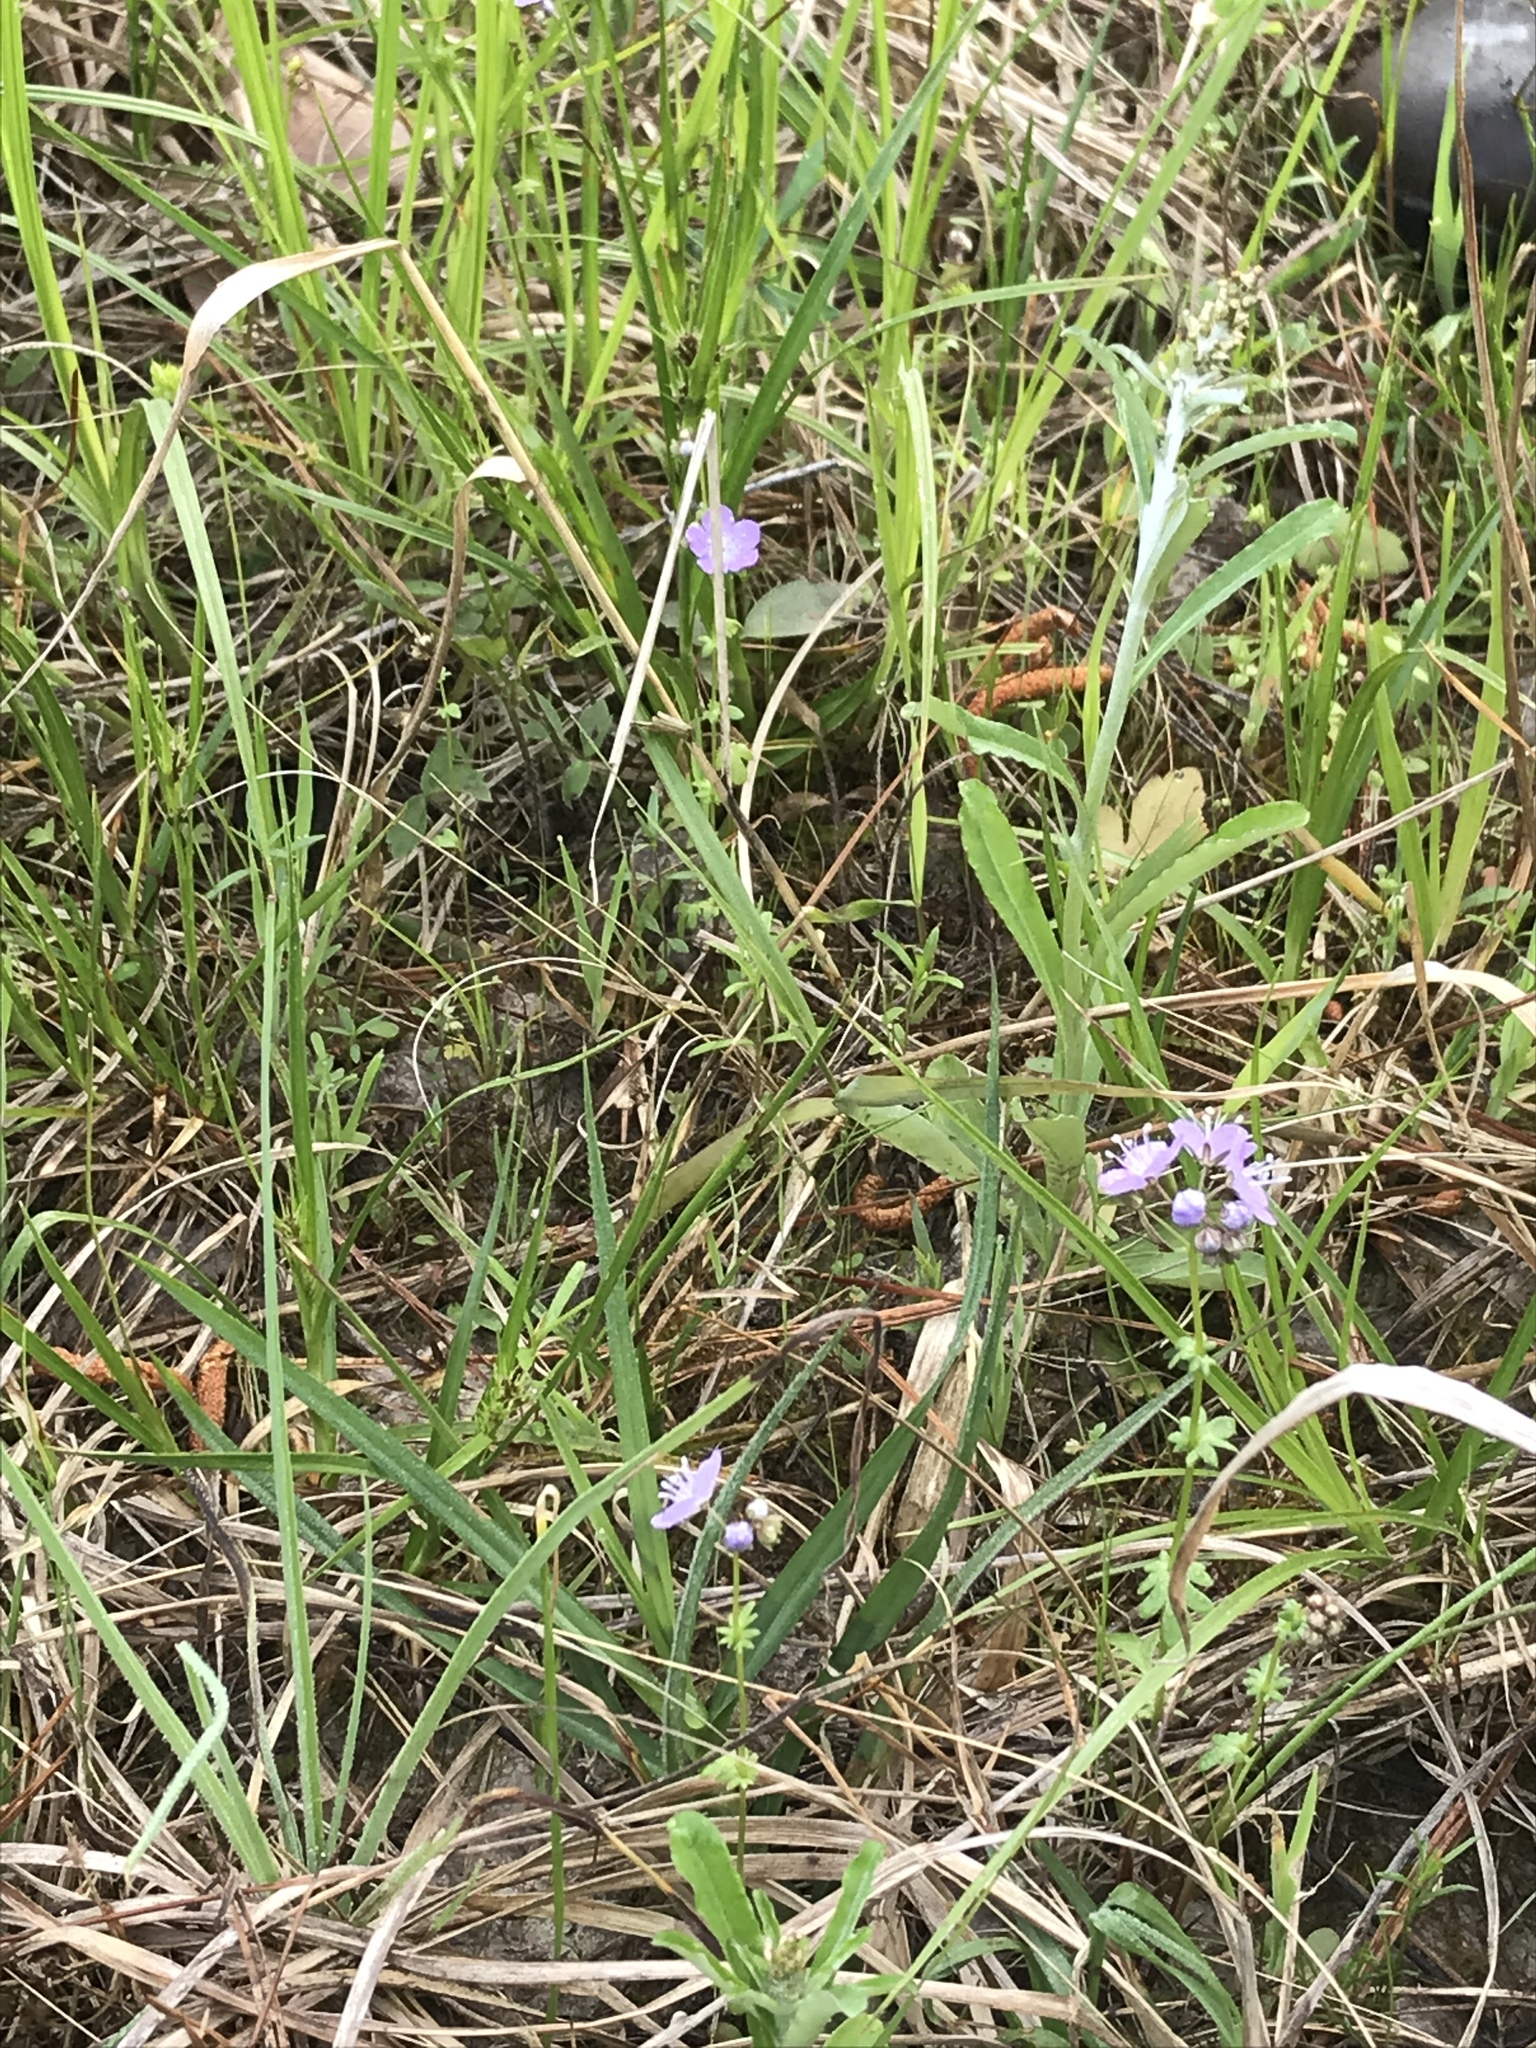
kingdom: Plantae
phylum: Tracheophyta
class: Magnoliopsida
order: Boraginales
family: Hydrophyllaceae
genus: Phacelia
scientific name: Phacelia glabra
